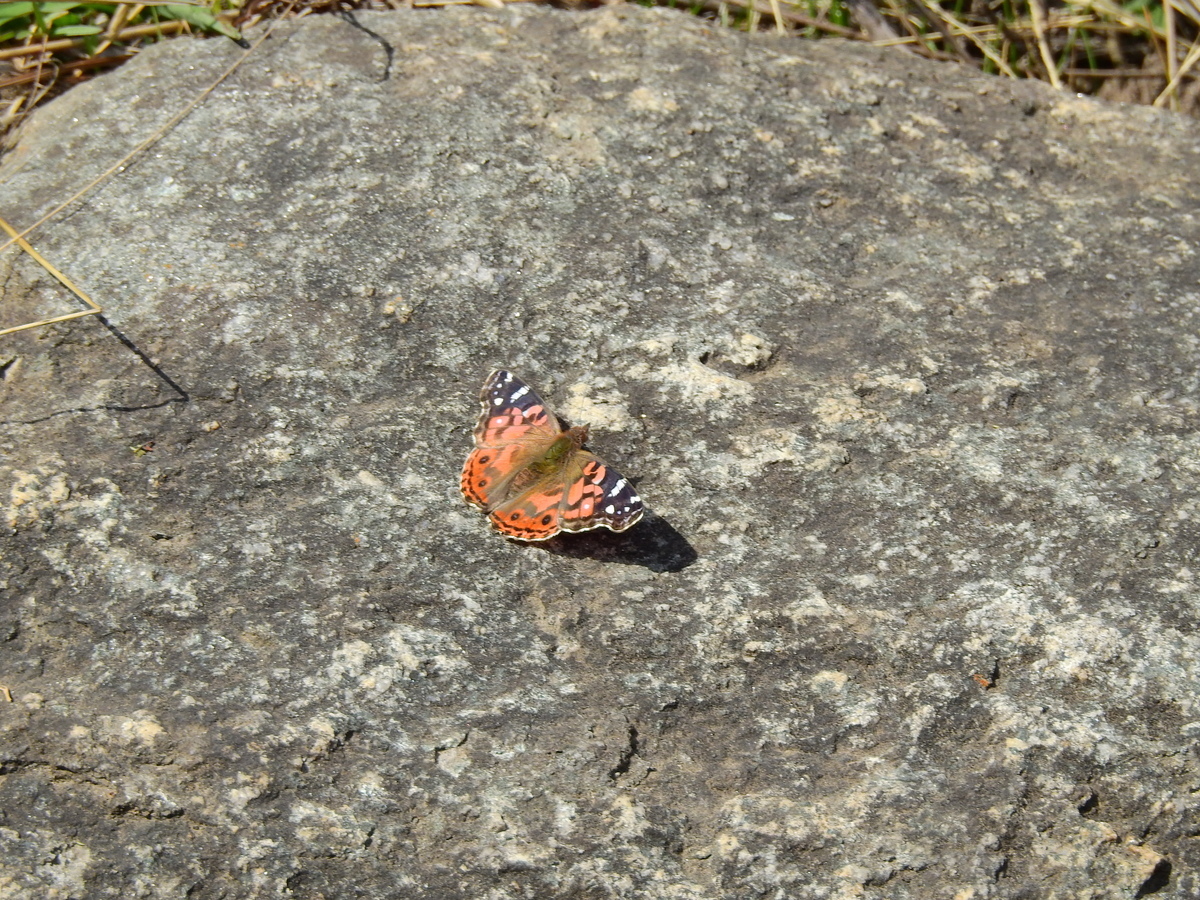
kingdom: Animalia
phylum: Arthropoda
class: Insecta
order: Lepidoptera
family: Nymphalidae
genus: Vanessa
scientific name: Vanessa braziliensis
